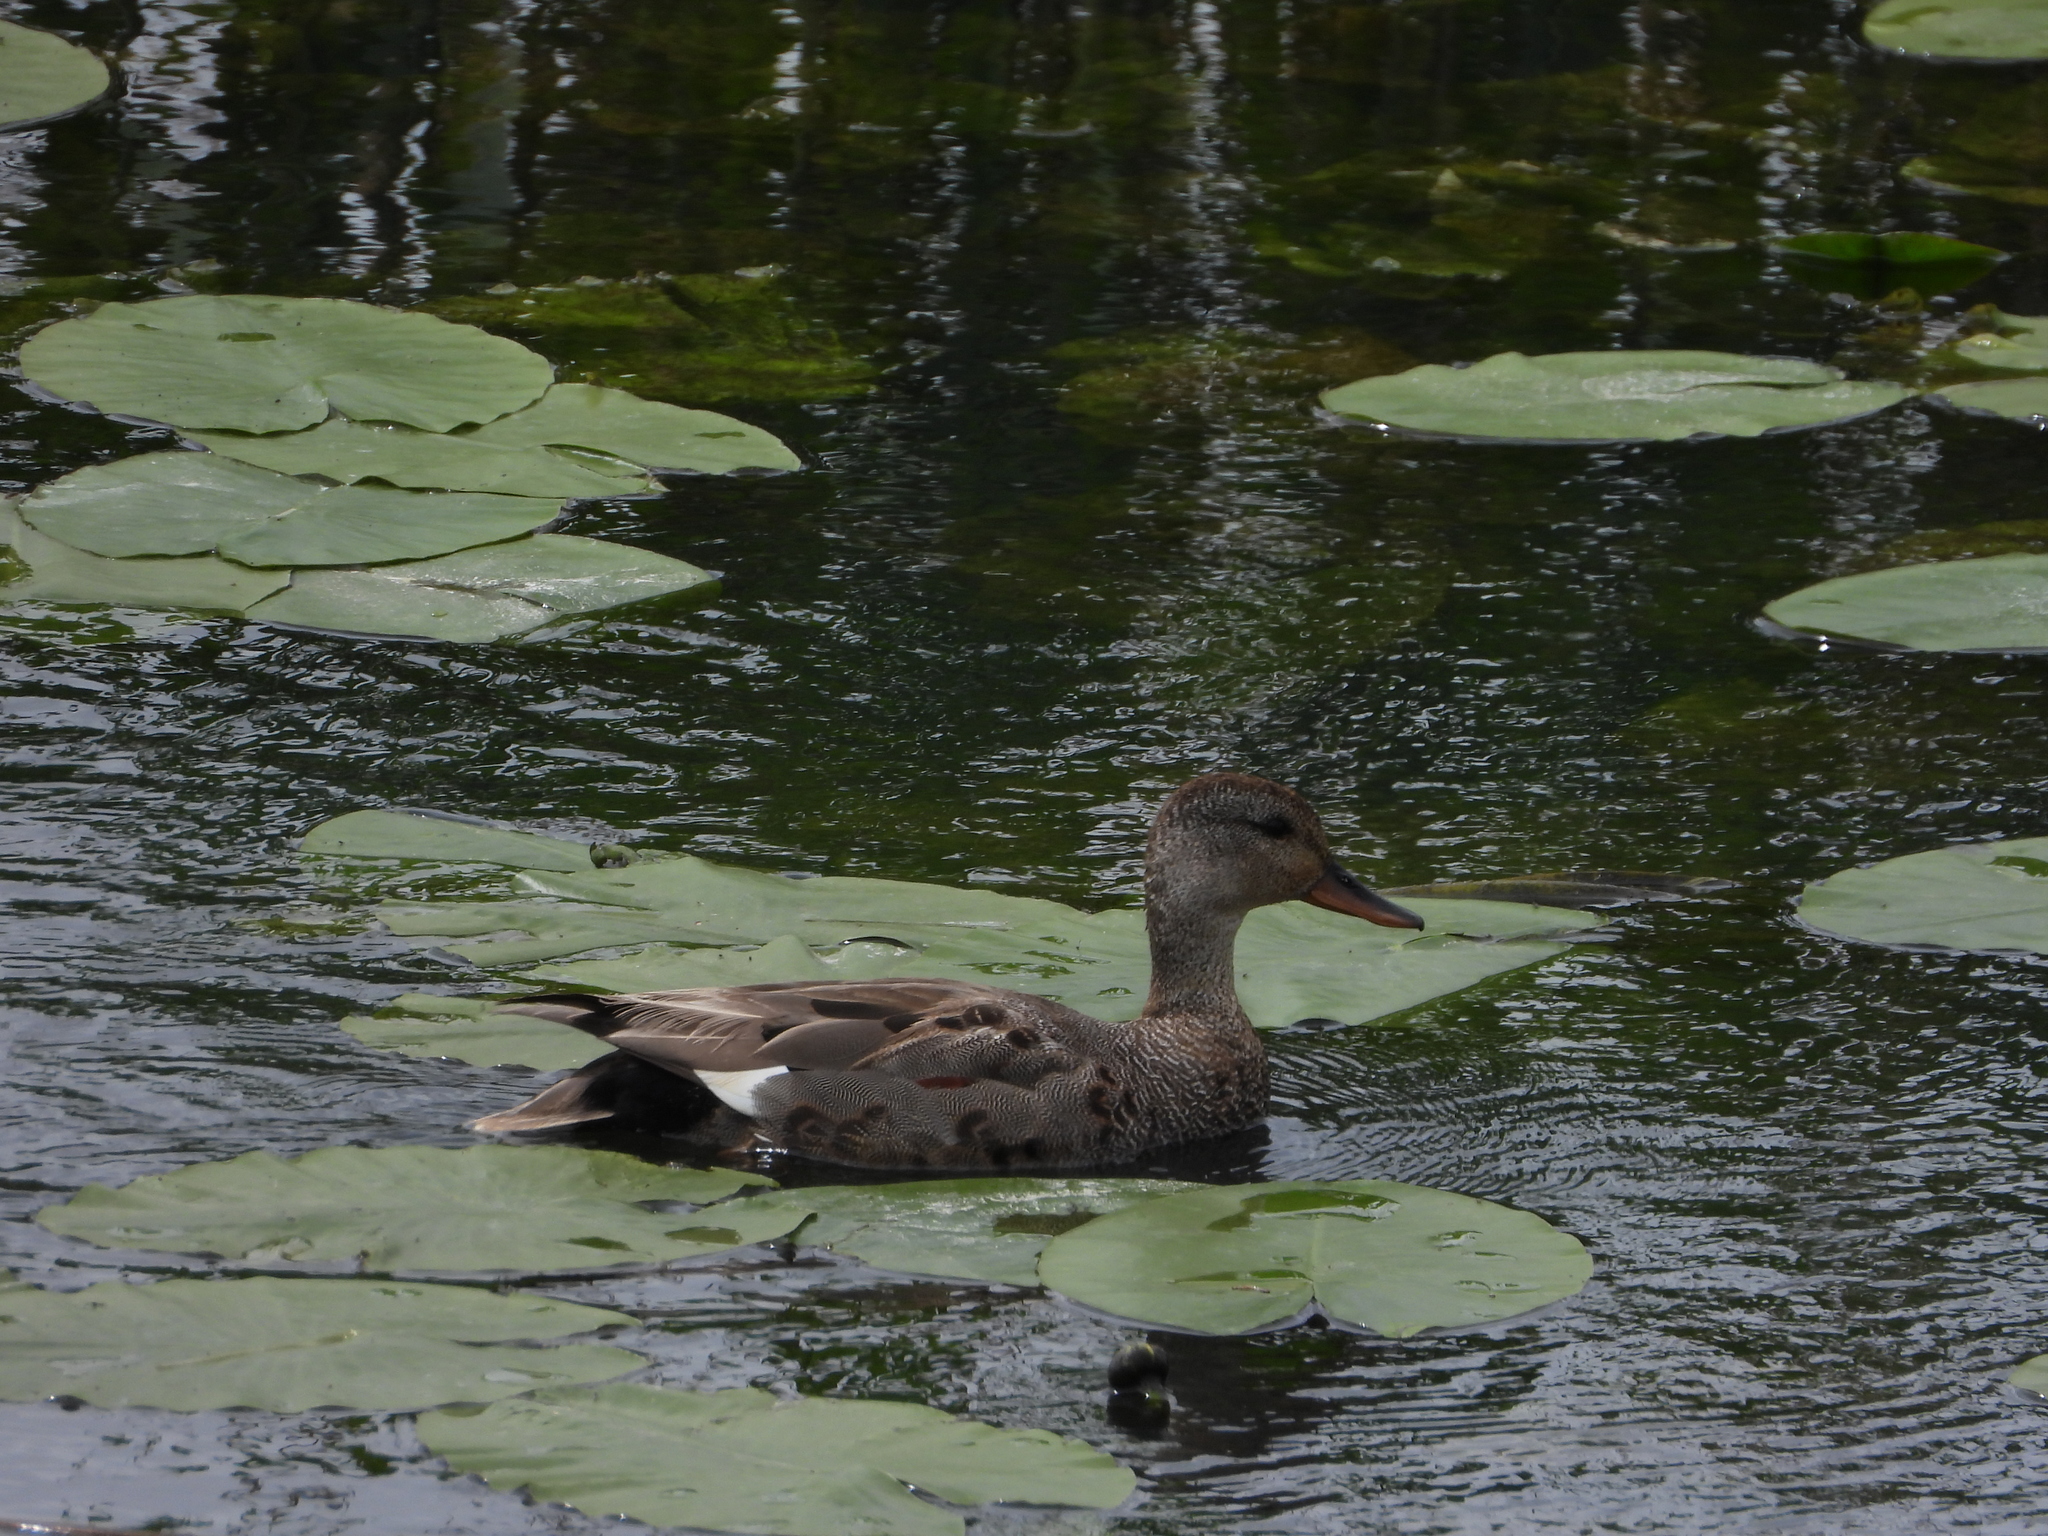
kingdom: Animalia
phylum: Chordata
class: Aves
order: Anseriformes
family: Anatidae
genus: Mareca
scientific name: Mareca strepera
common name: Gadwall
